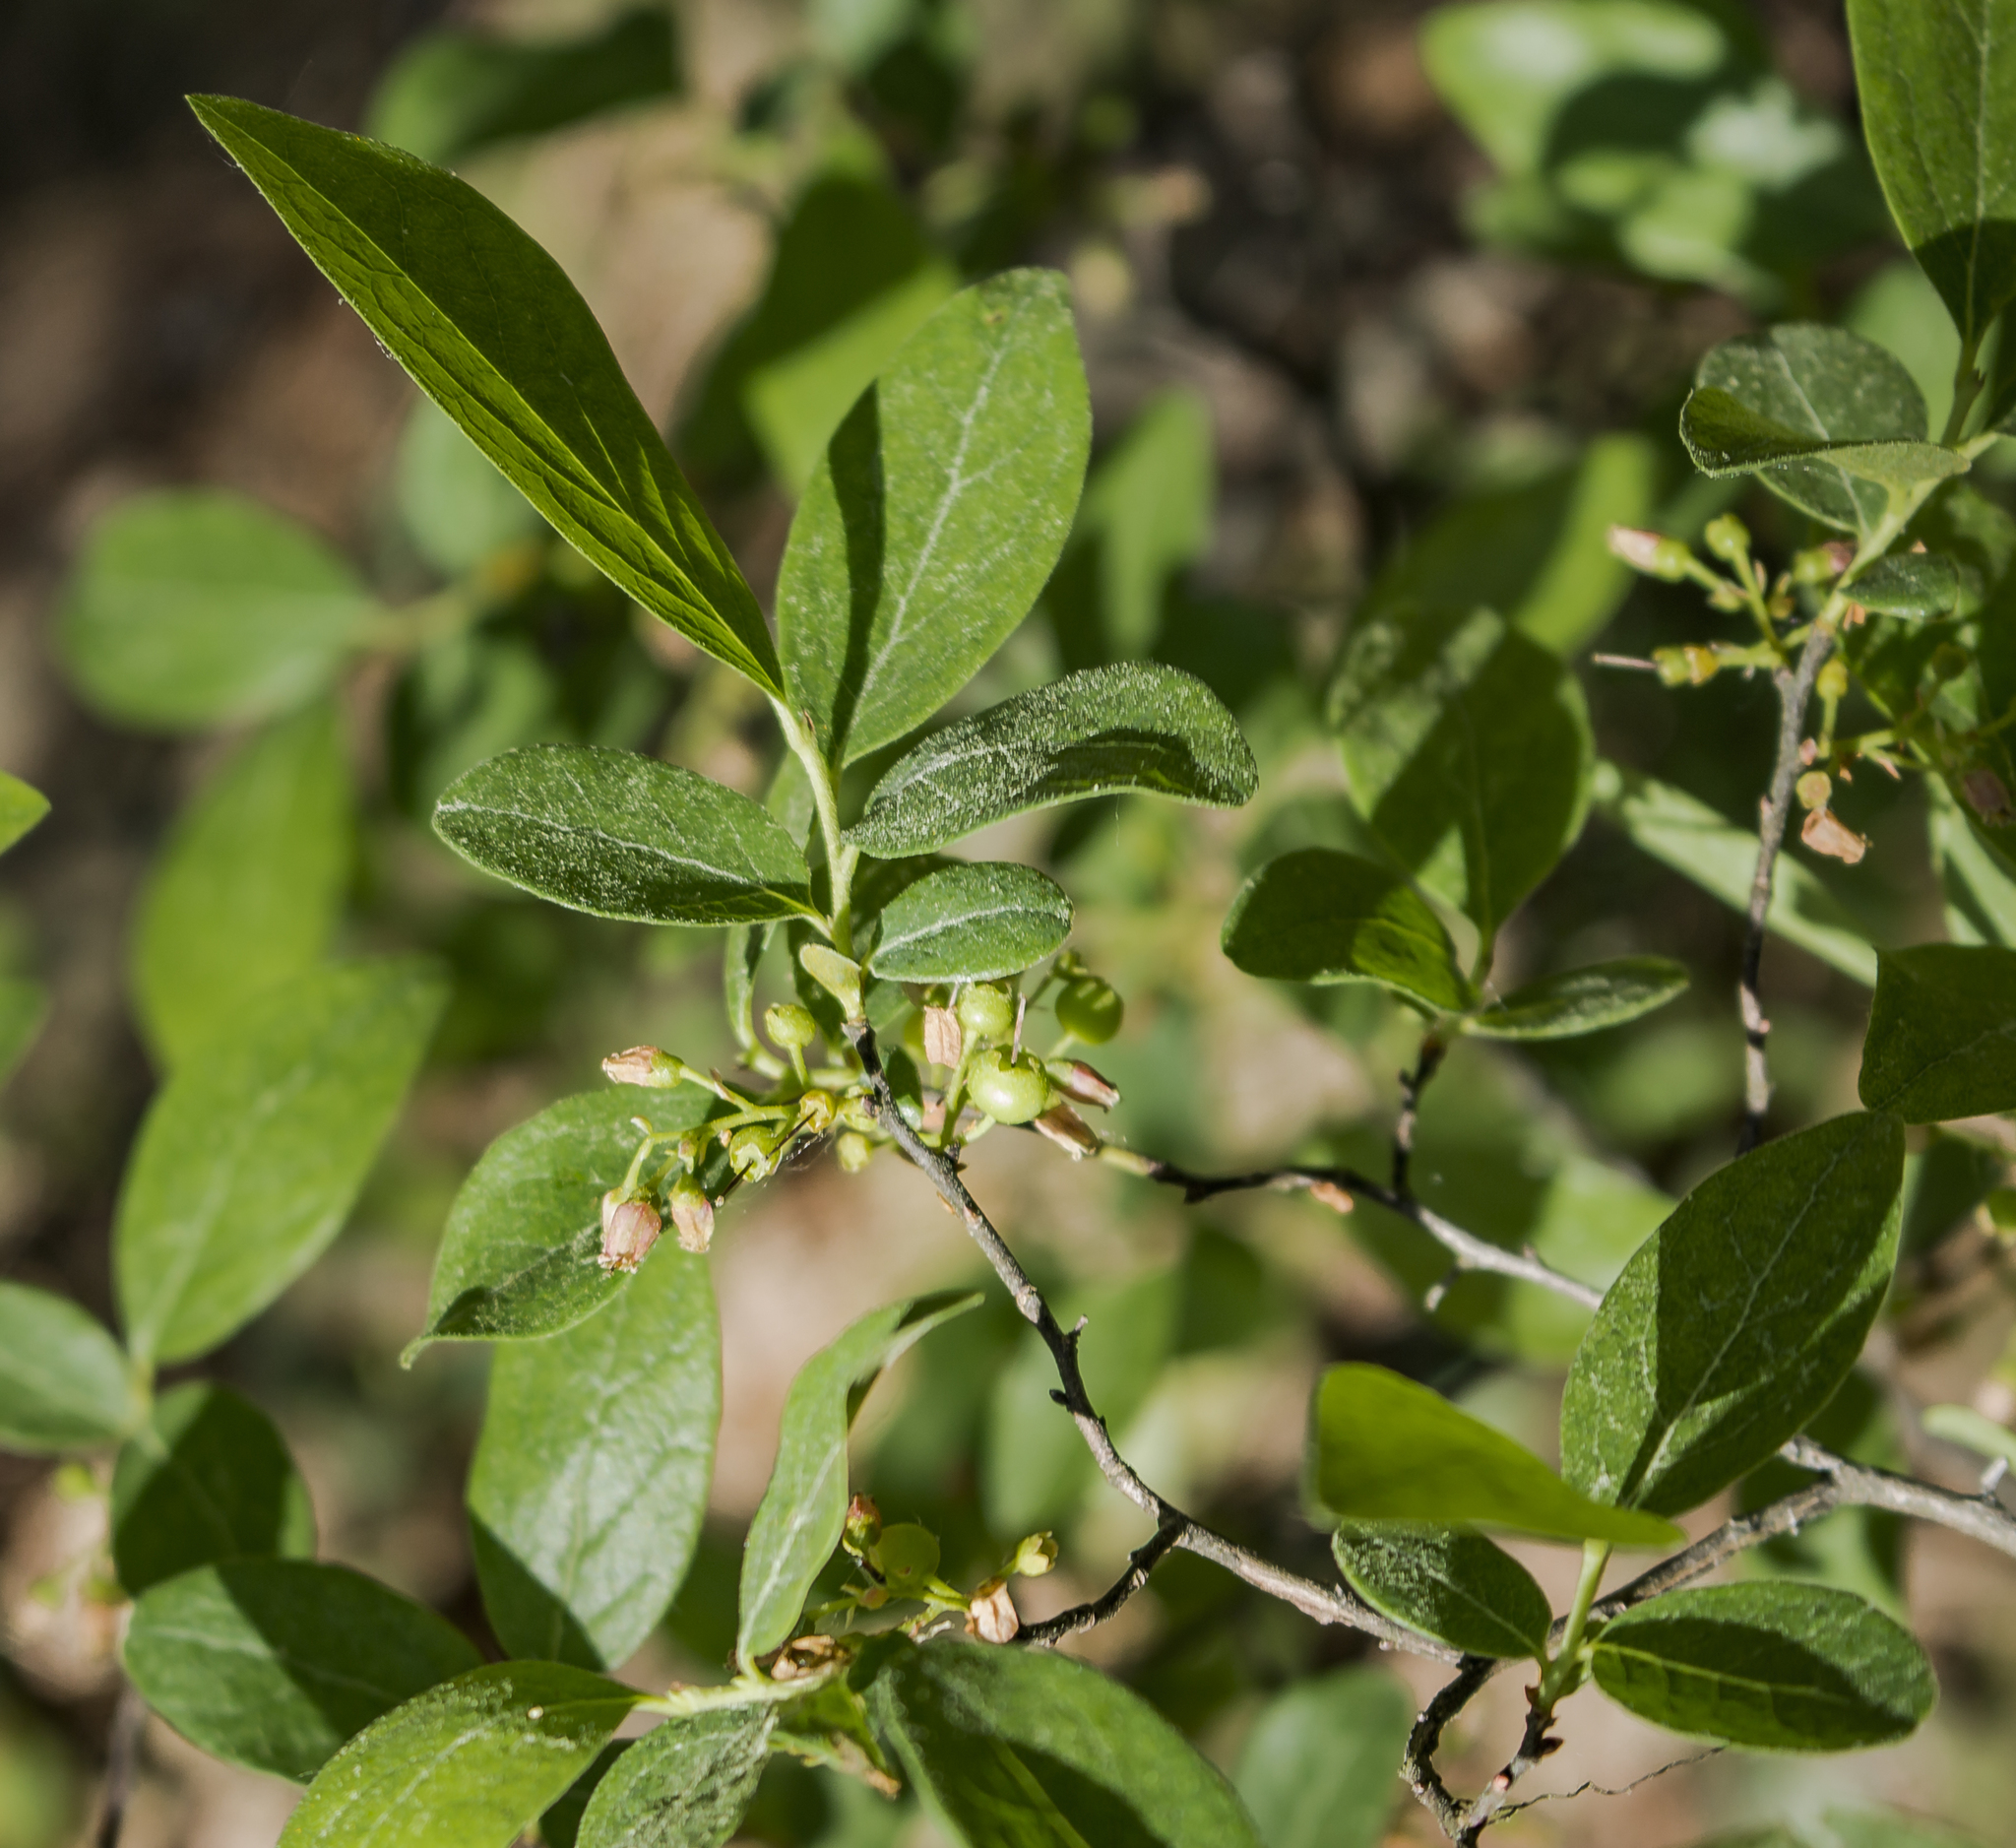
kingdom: Plantae
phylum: Tracheophyta
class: Magnoliopsida
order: Ericales
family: Ericaceae
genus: Gaylussacia
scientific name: Gaylussacia baccata
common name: Black huckleberry
